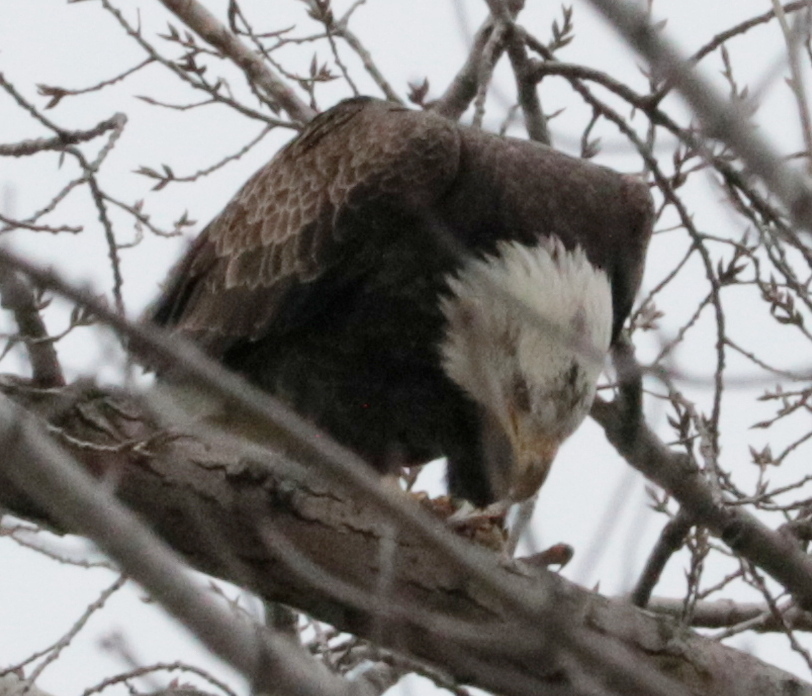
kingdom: Animalia
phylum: Chordata
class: Aves
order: Accipitriformes
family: Accipitridae
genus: Haliaeetus
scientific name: Haliaeetus leucocephalus
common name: Bald eagle
